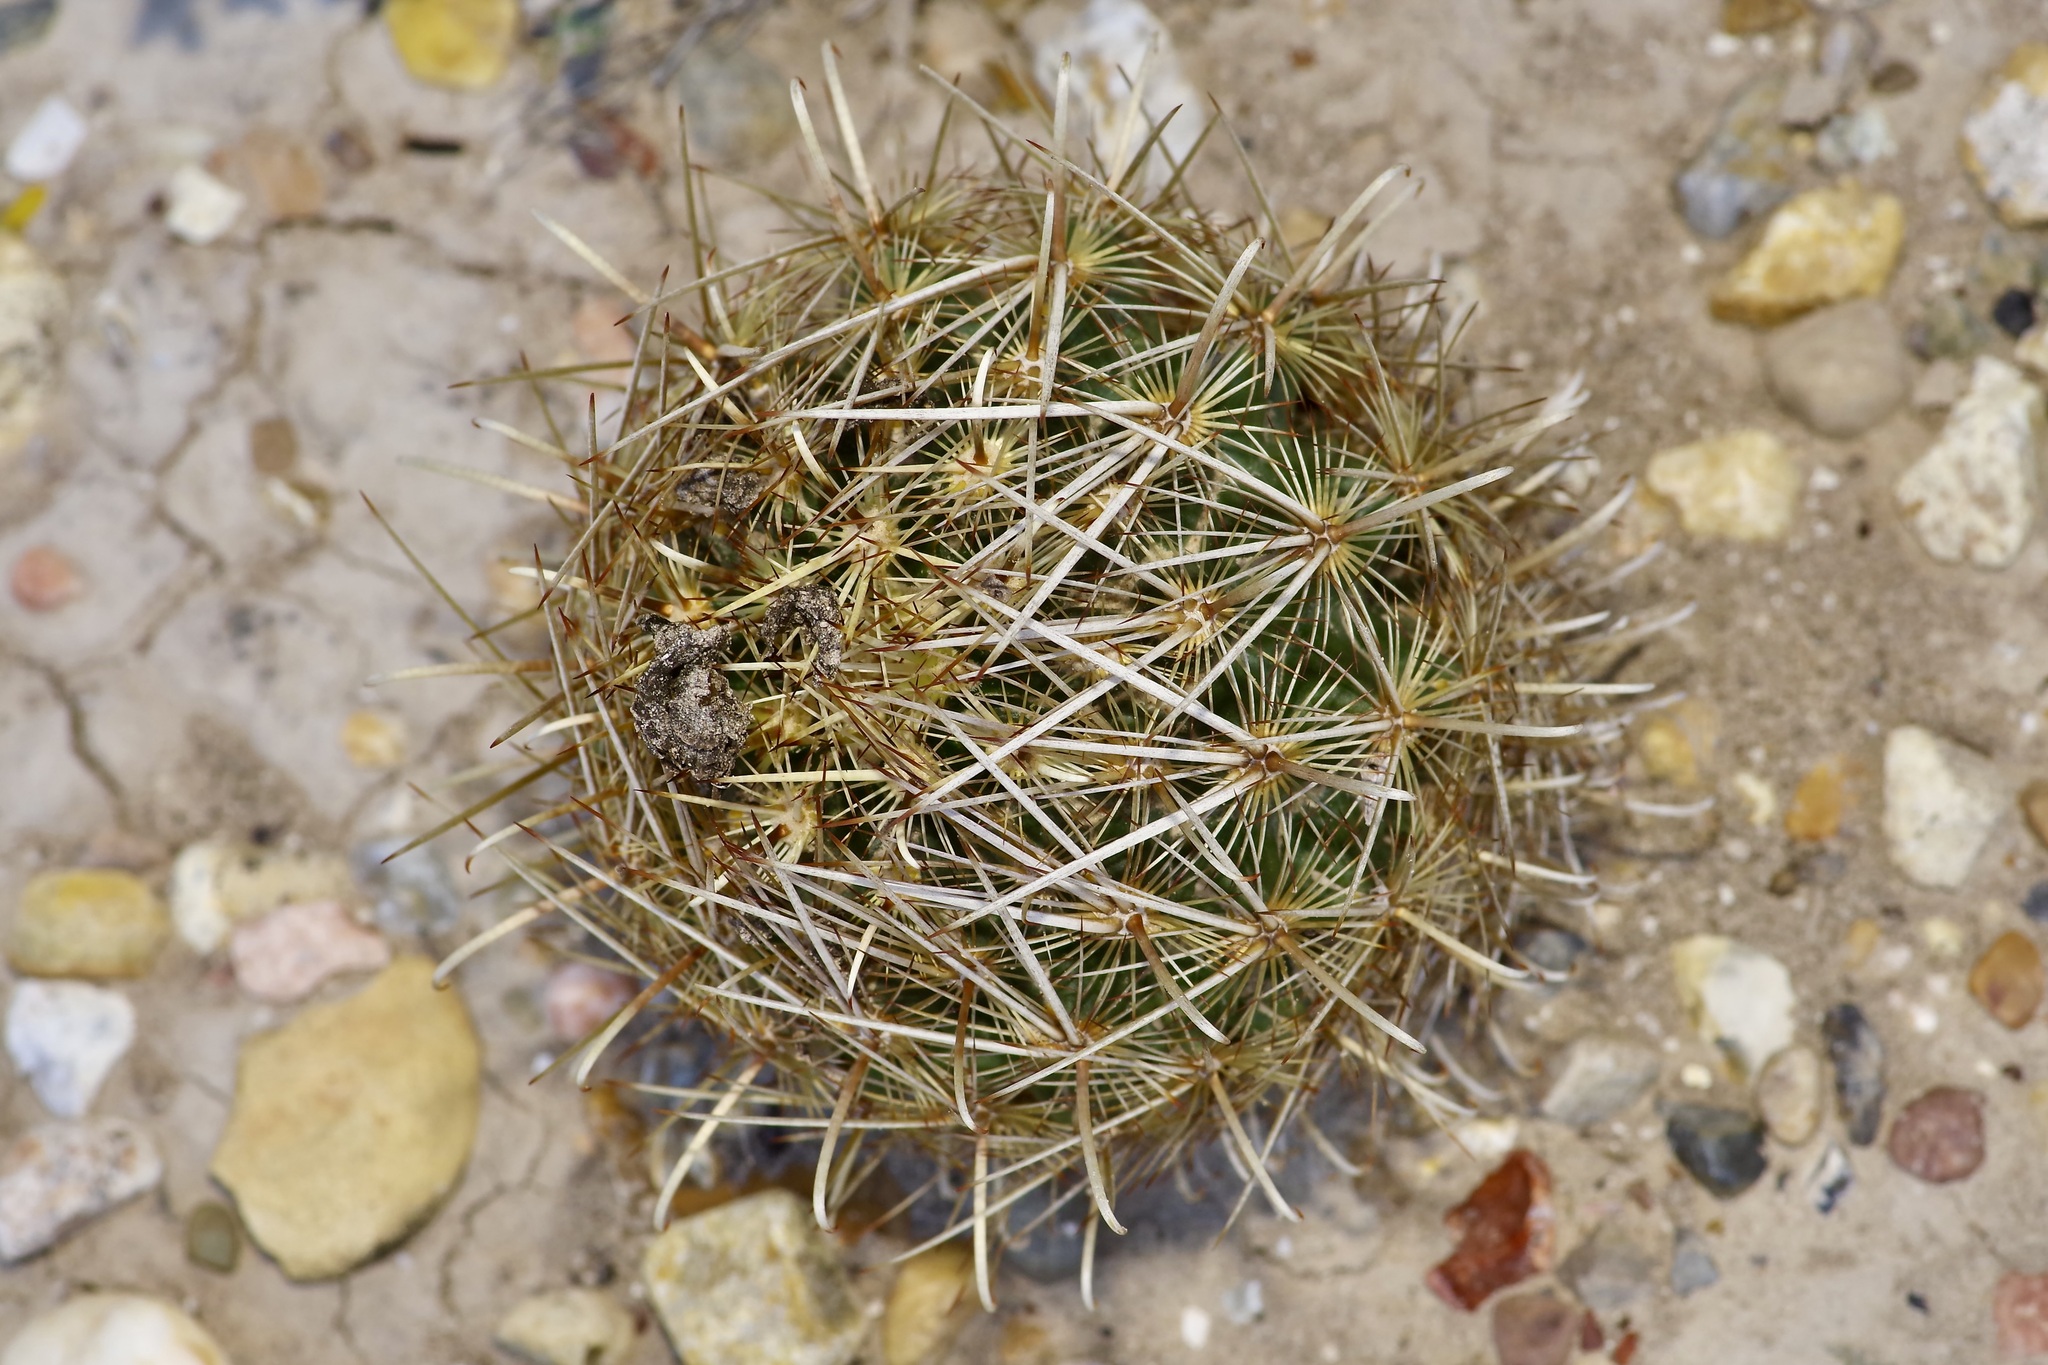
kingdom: Plantae
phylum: Tracheophyta
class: Magnoliopsida
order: Caryophyllales
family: Cactaceae
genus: Sclerocactus
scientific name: Sclerocactus scheerii
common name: Scheer's fish-hook cactus
